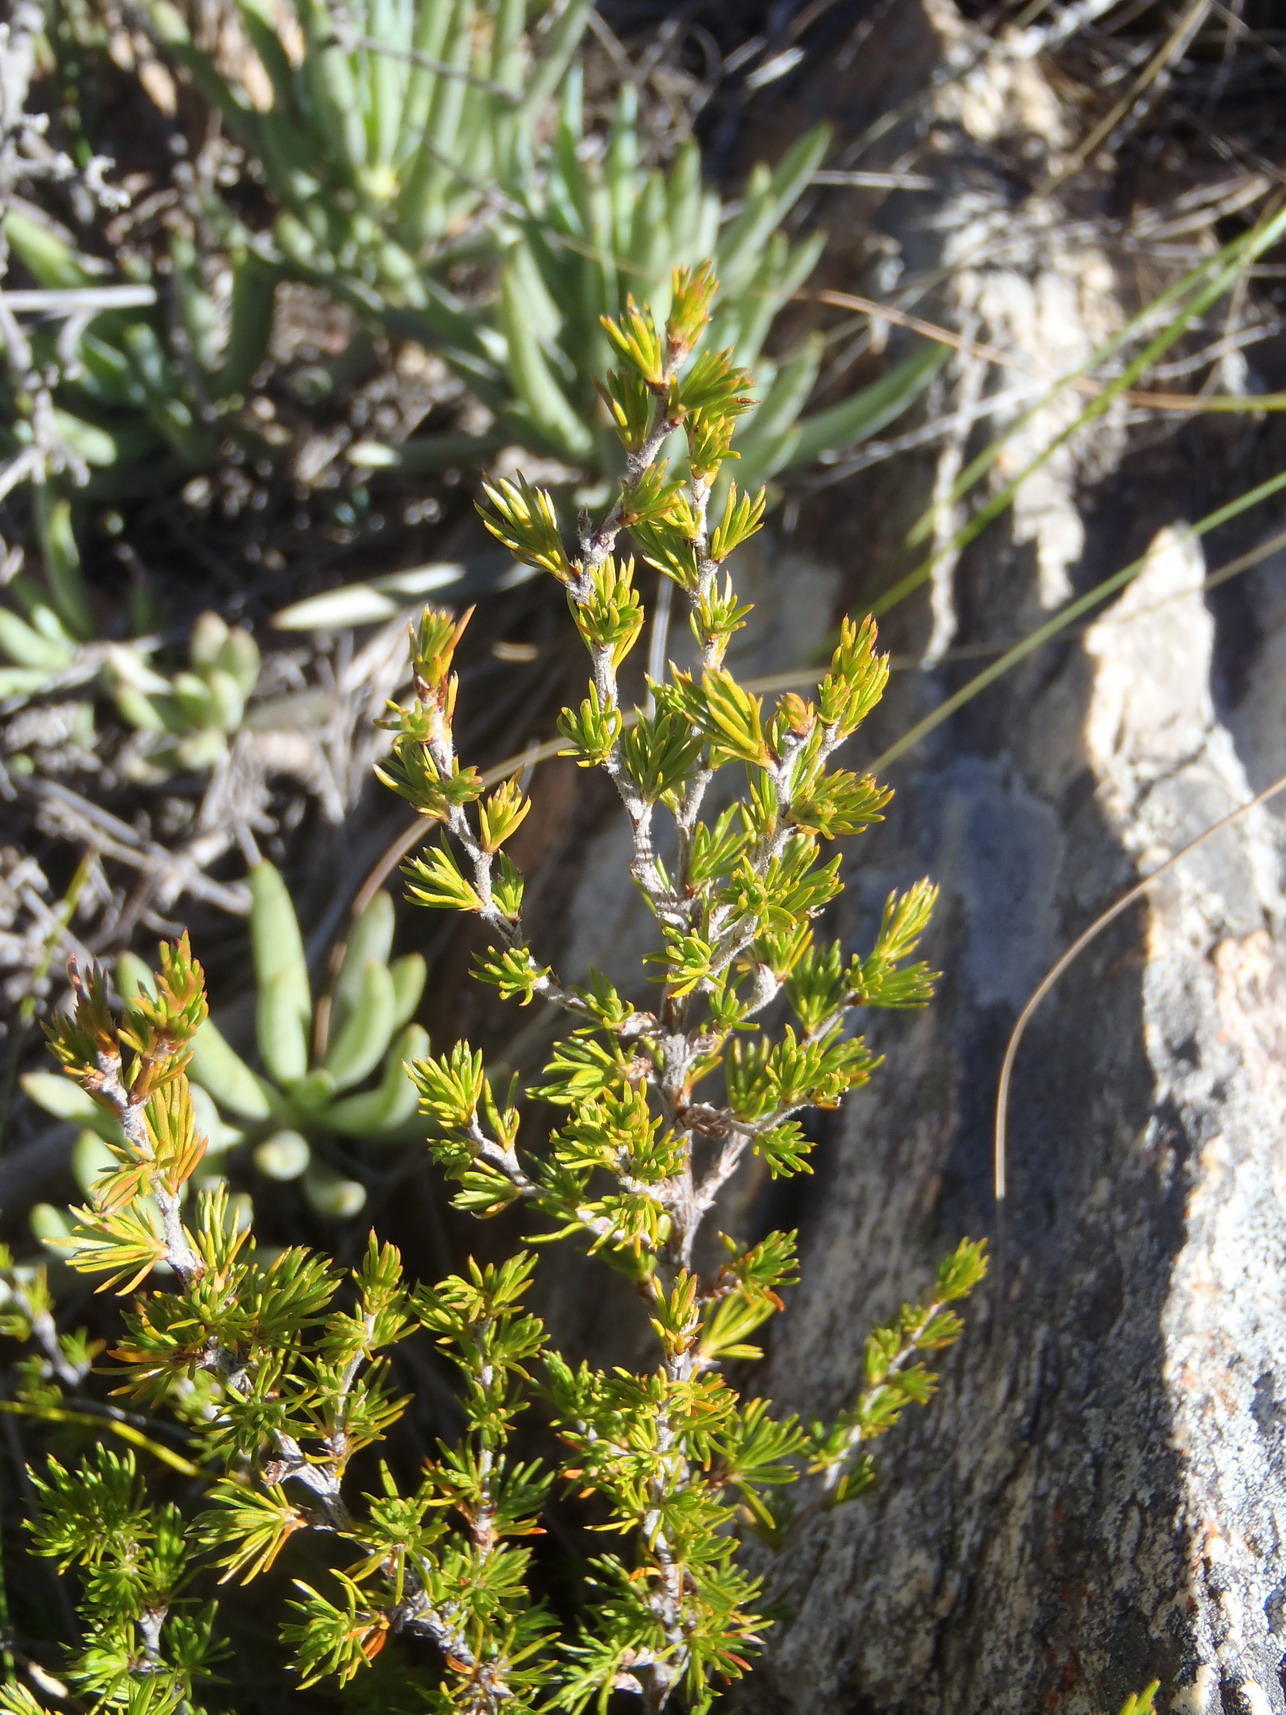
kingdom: Plantae
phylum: Tracheophyta
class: Magnoliopsida
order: Rosales
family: Rosaceae
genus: Cliffortia
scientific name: Cliffortia tuberculata
